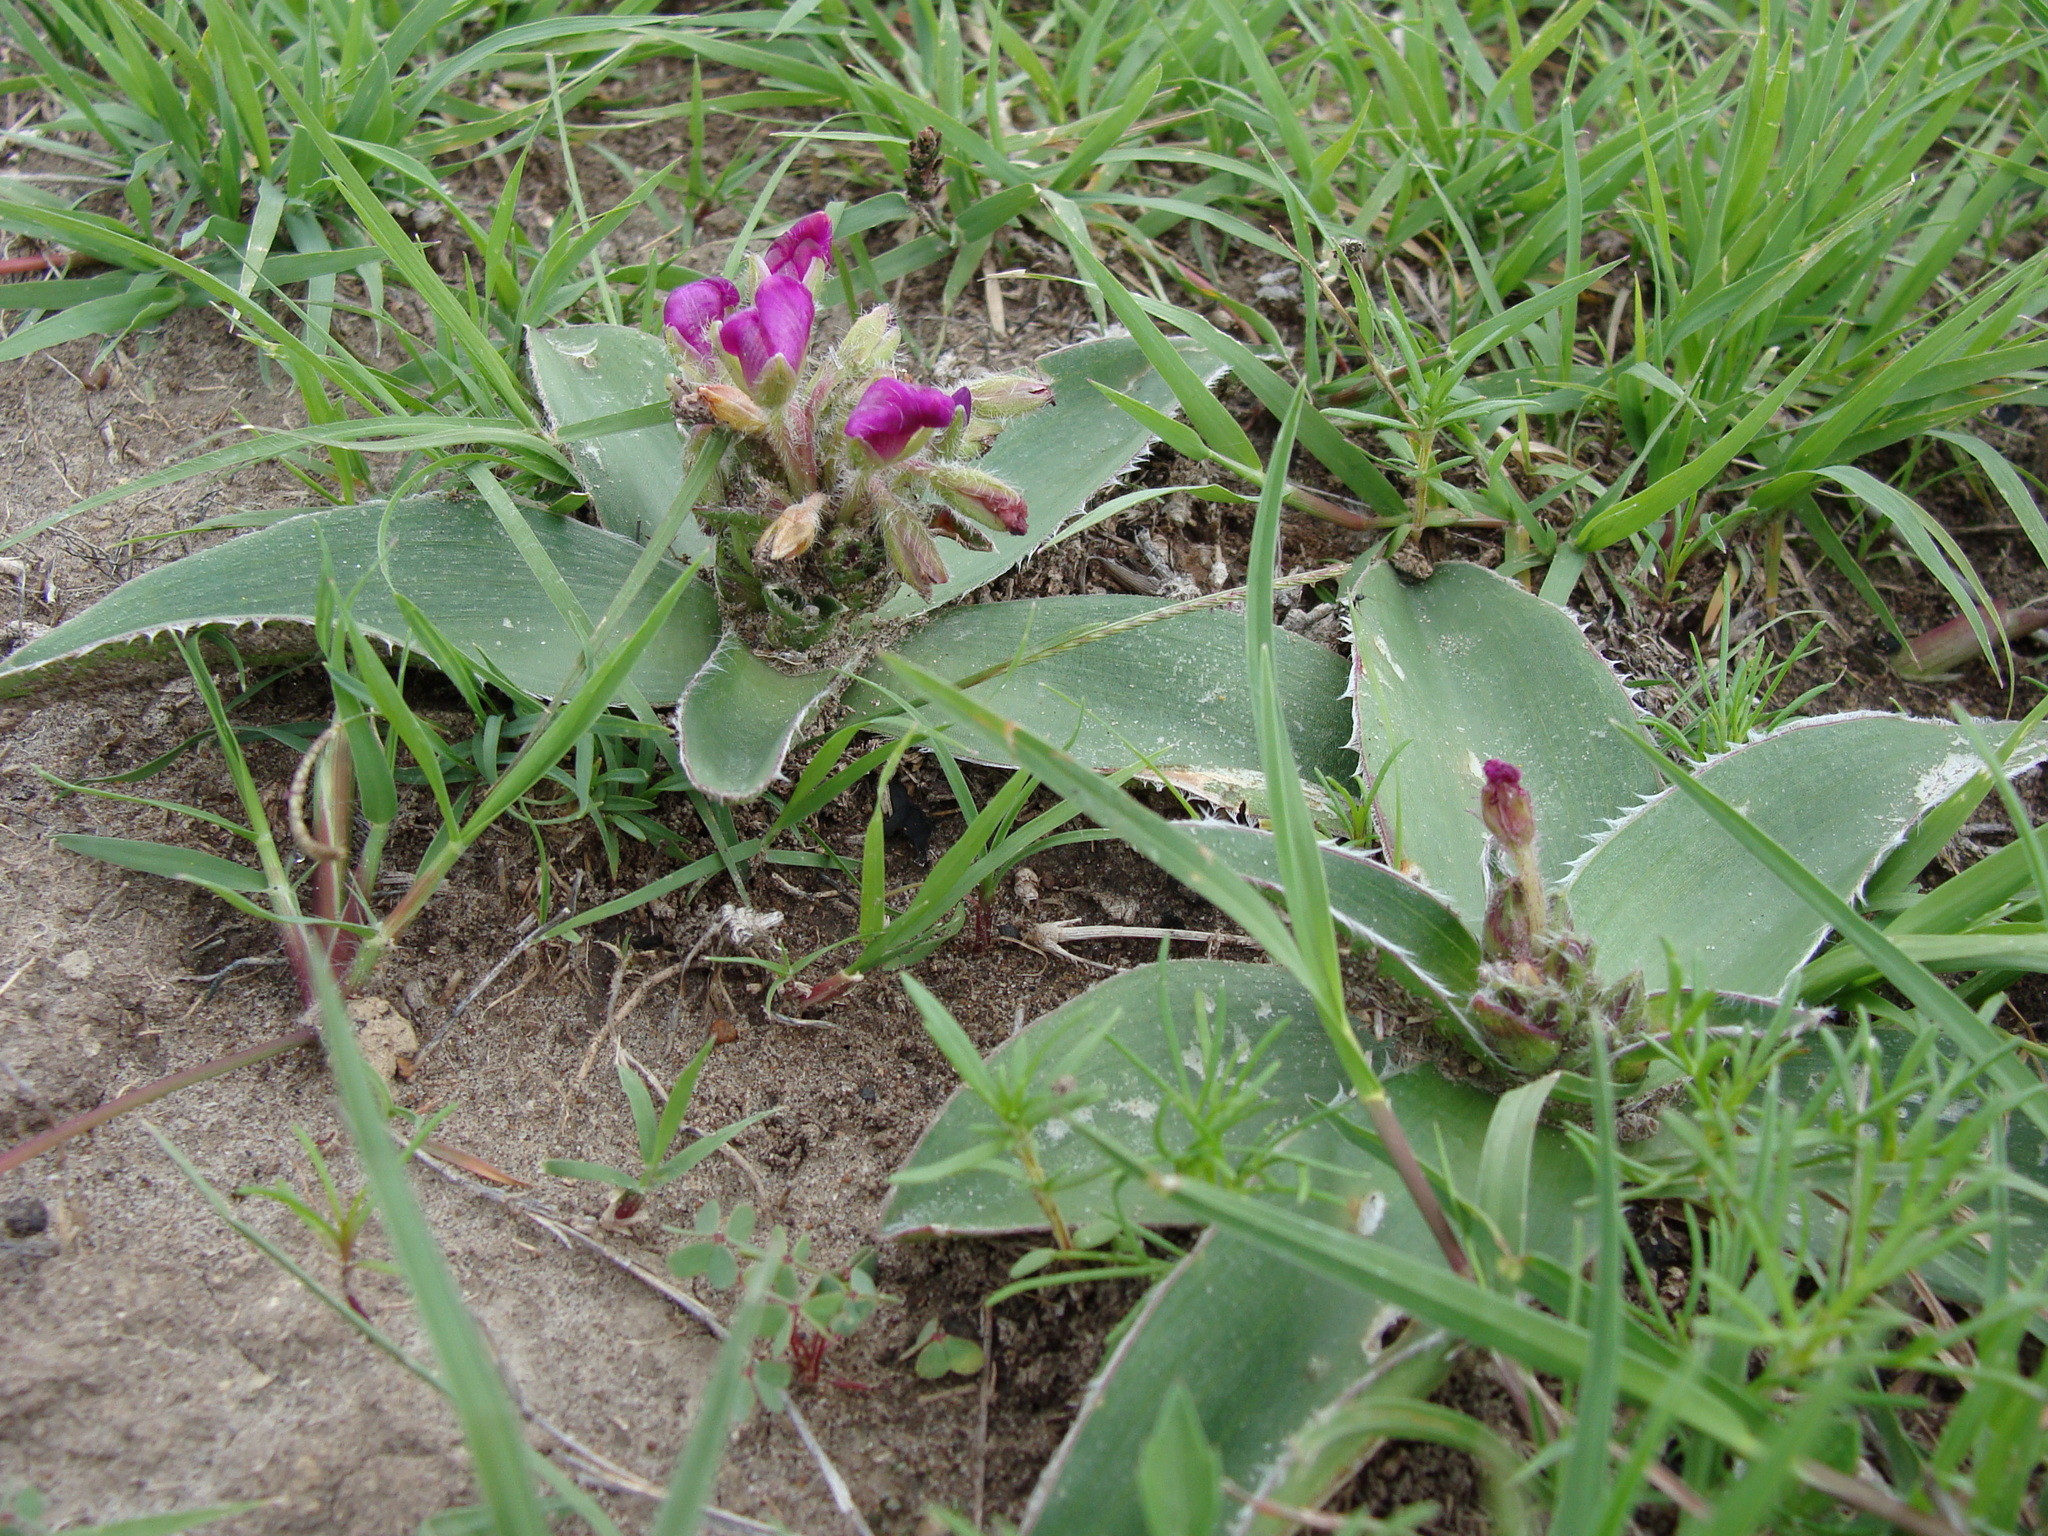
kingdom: Plantae
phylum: Tracheophyta
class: Liliopsida
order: Commelinales
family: Commelinaceae
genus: Tradescantia
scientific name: Tradescantia crassifolia
